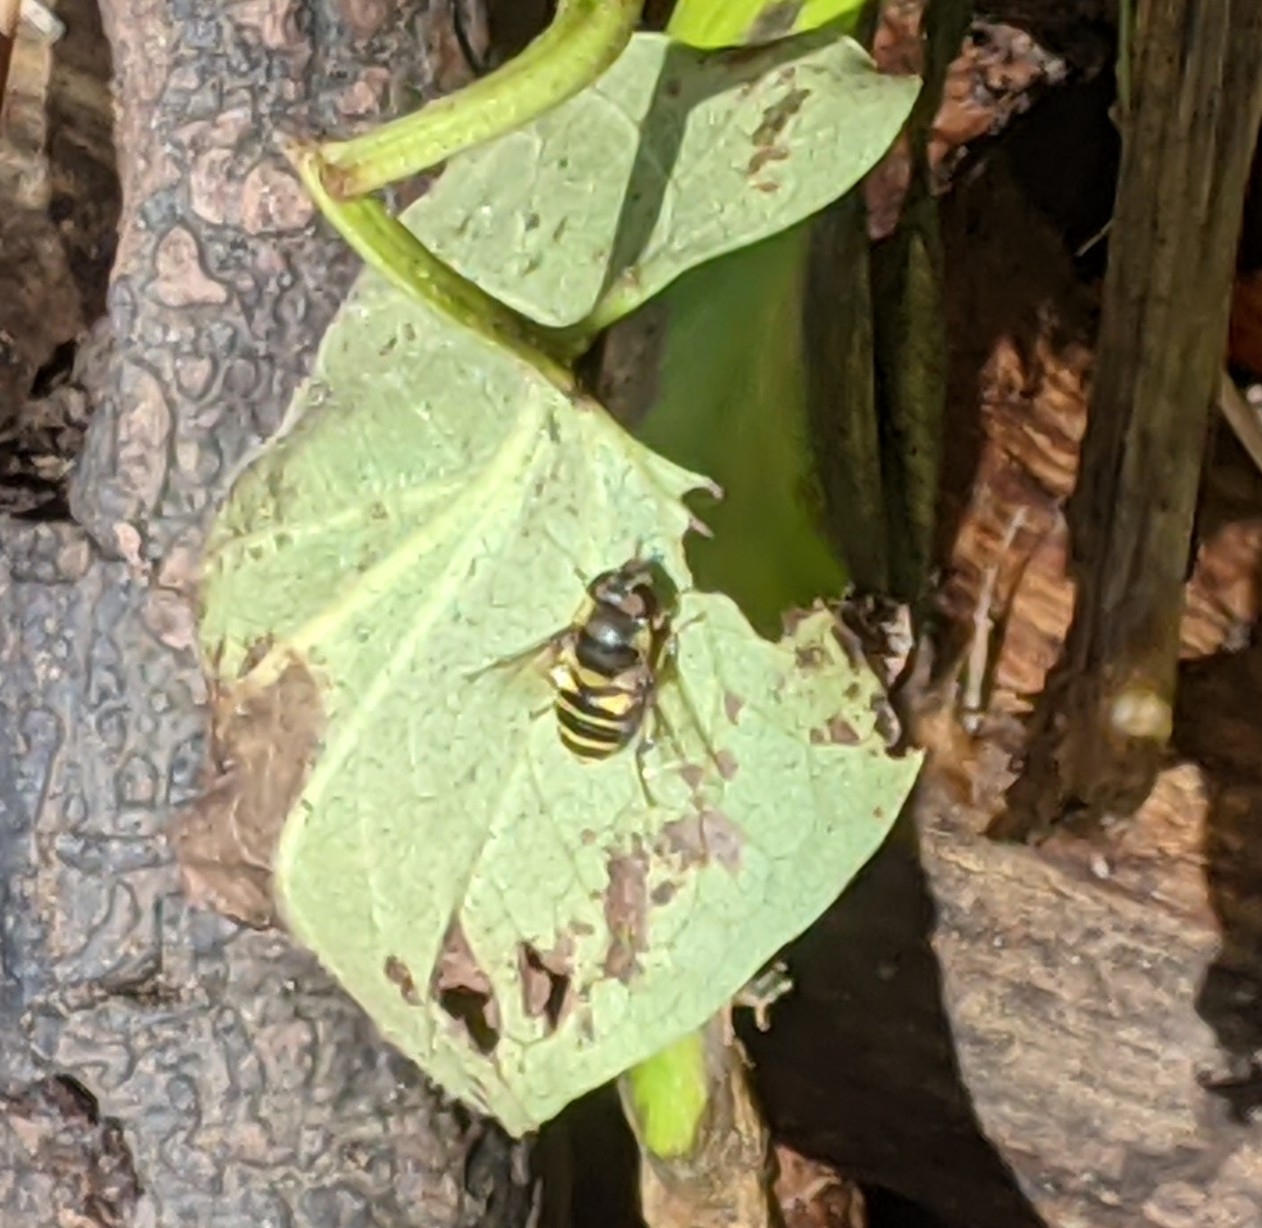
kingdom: Animalia
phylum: Arthropoda
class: Insecta
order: Diptera
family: Syrphidae
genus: Eristalis
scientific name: Eristalis transversa
